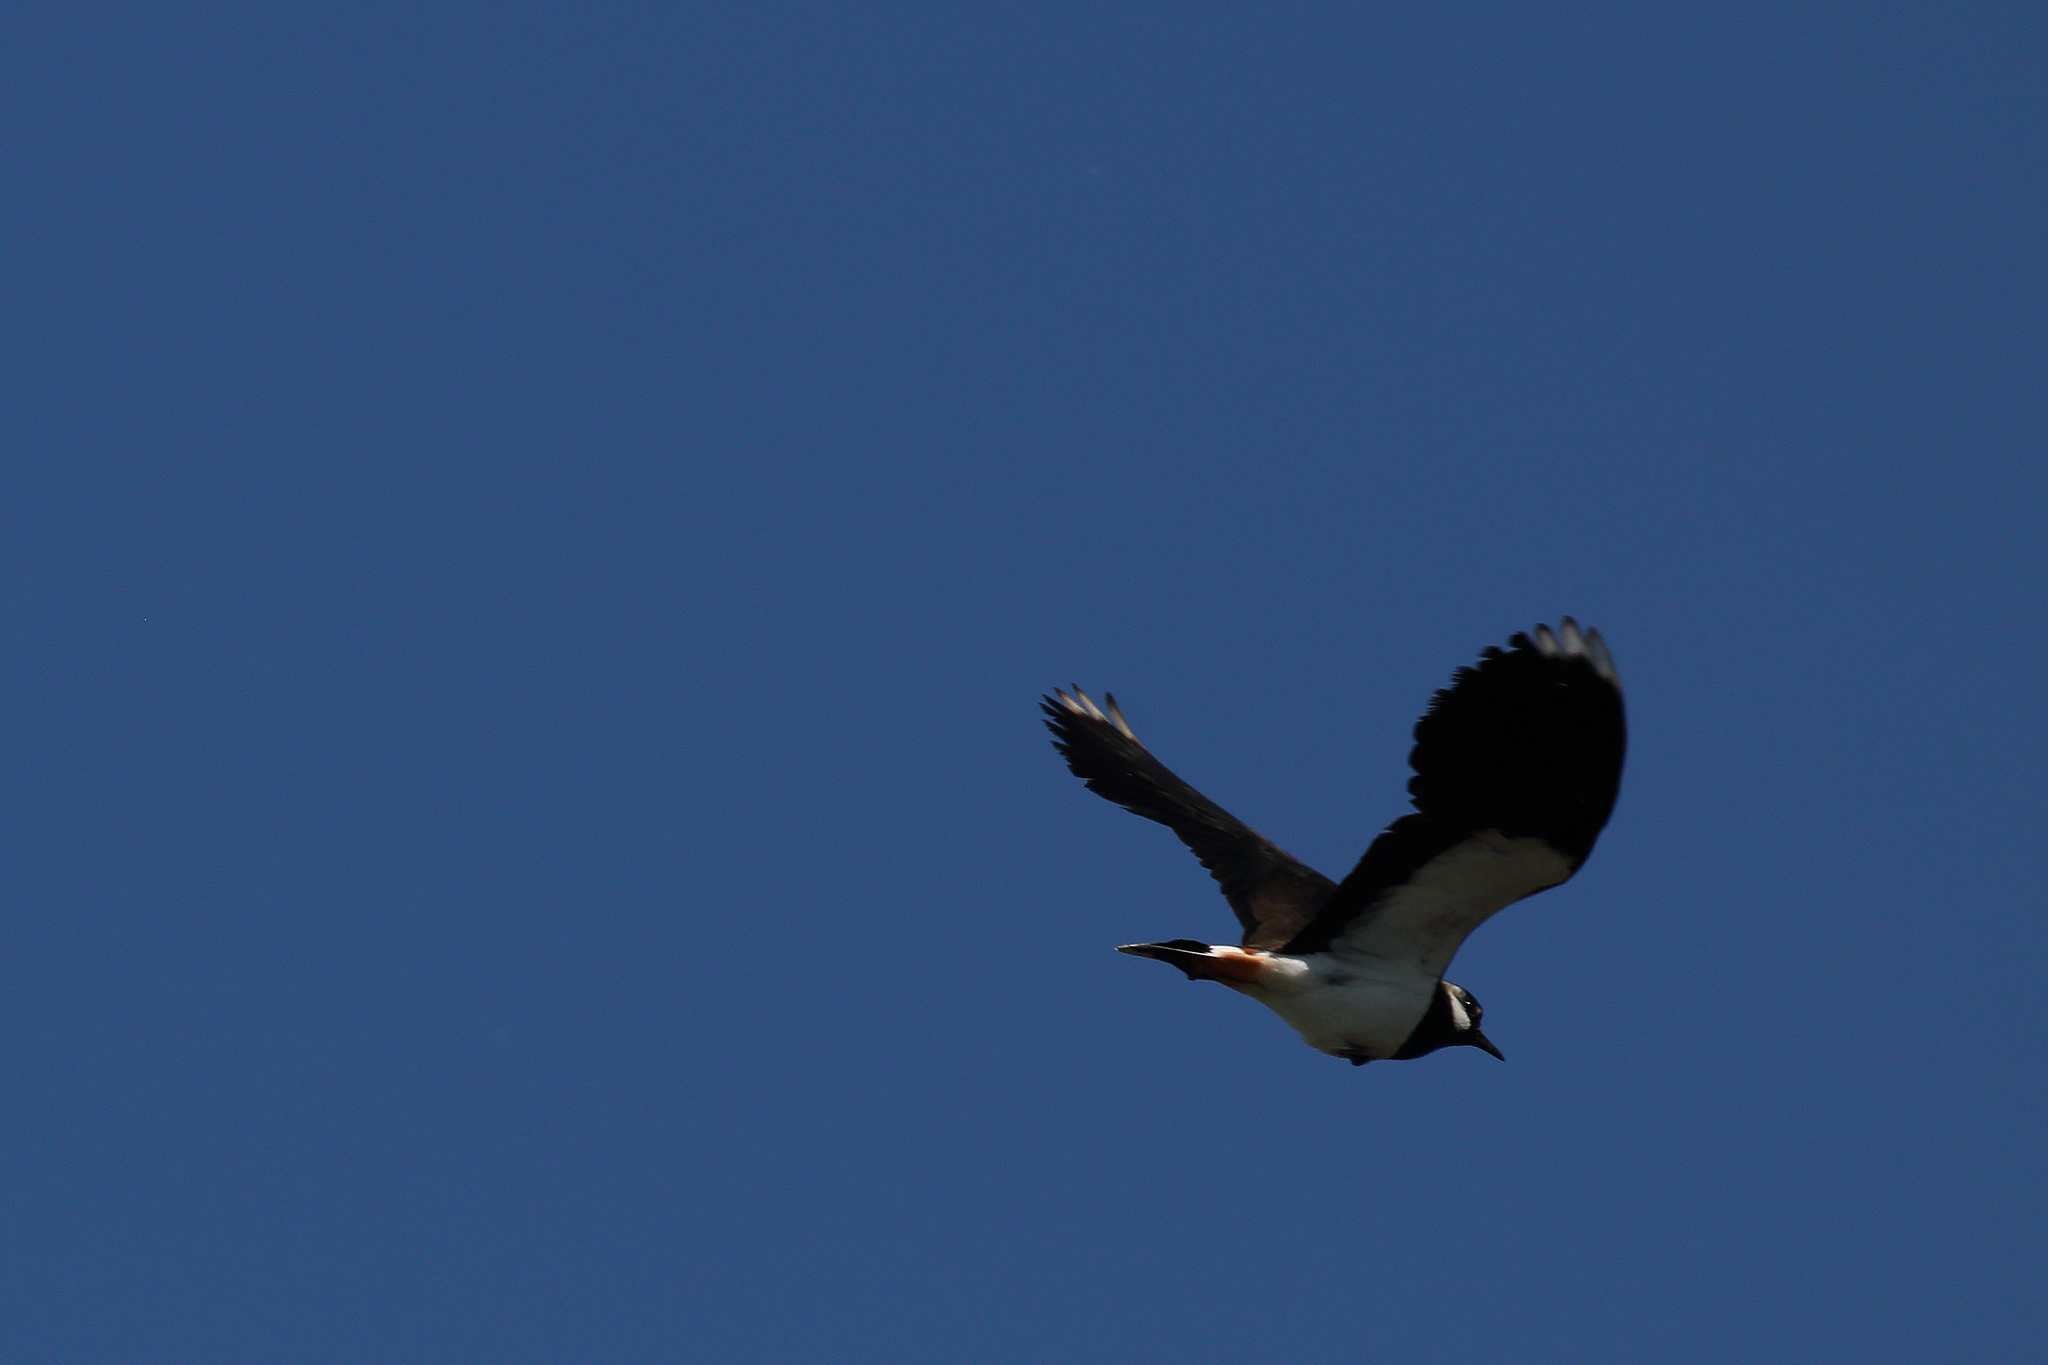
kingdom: Animalia
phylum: Chordata
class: Aves
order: Charadriiformes
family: Charadriidae
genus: Vanellus
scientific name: Vanellus vanellus
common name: Northern lapwing
